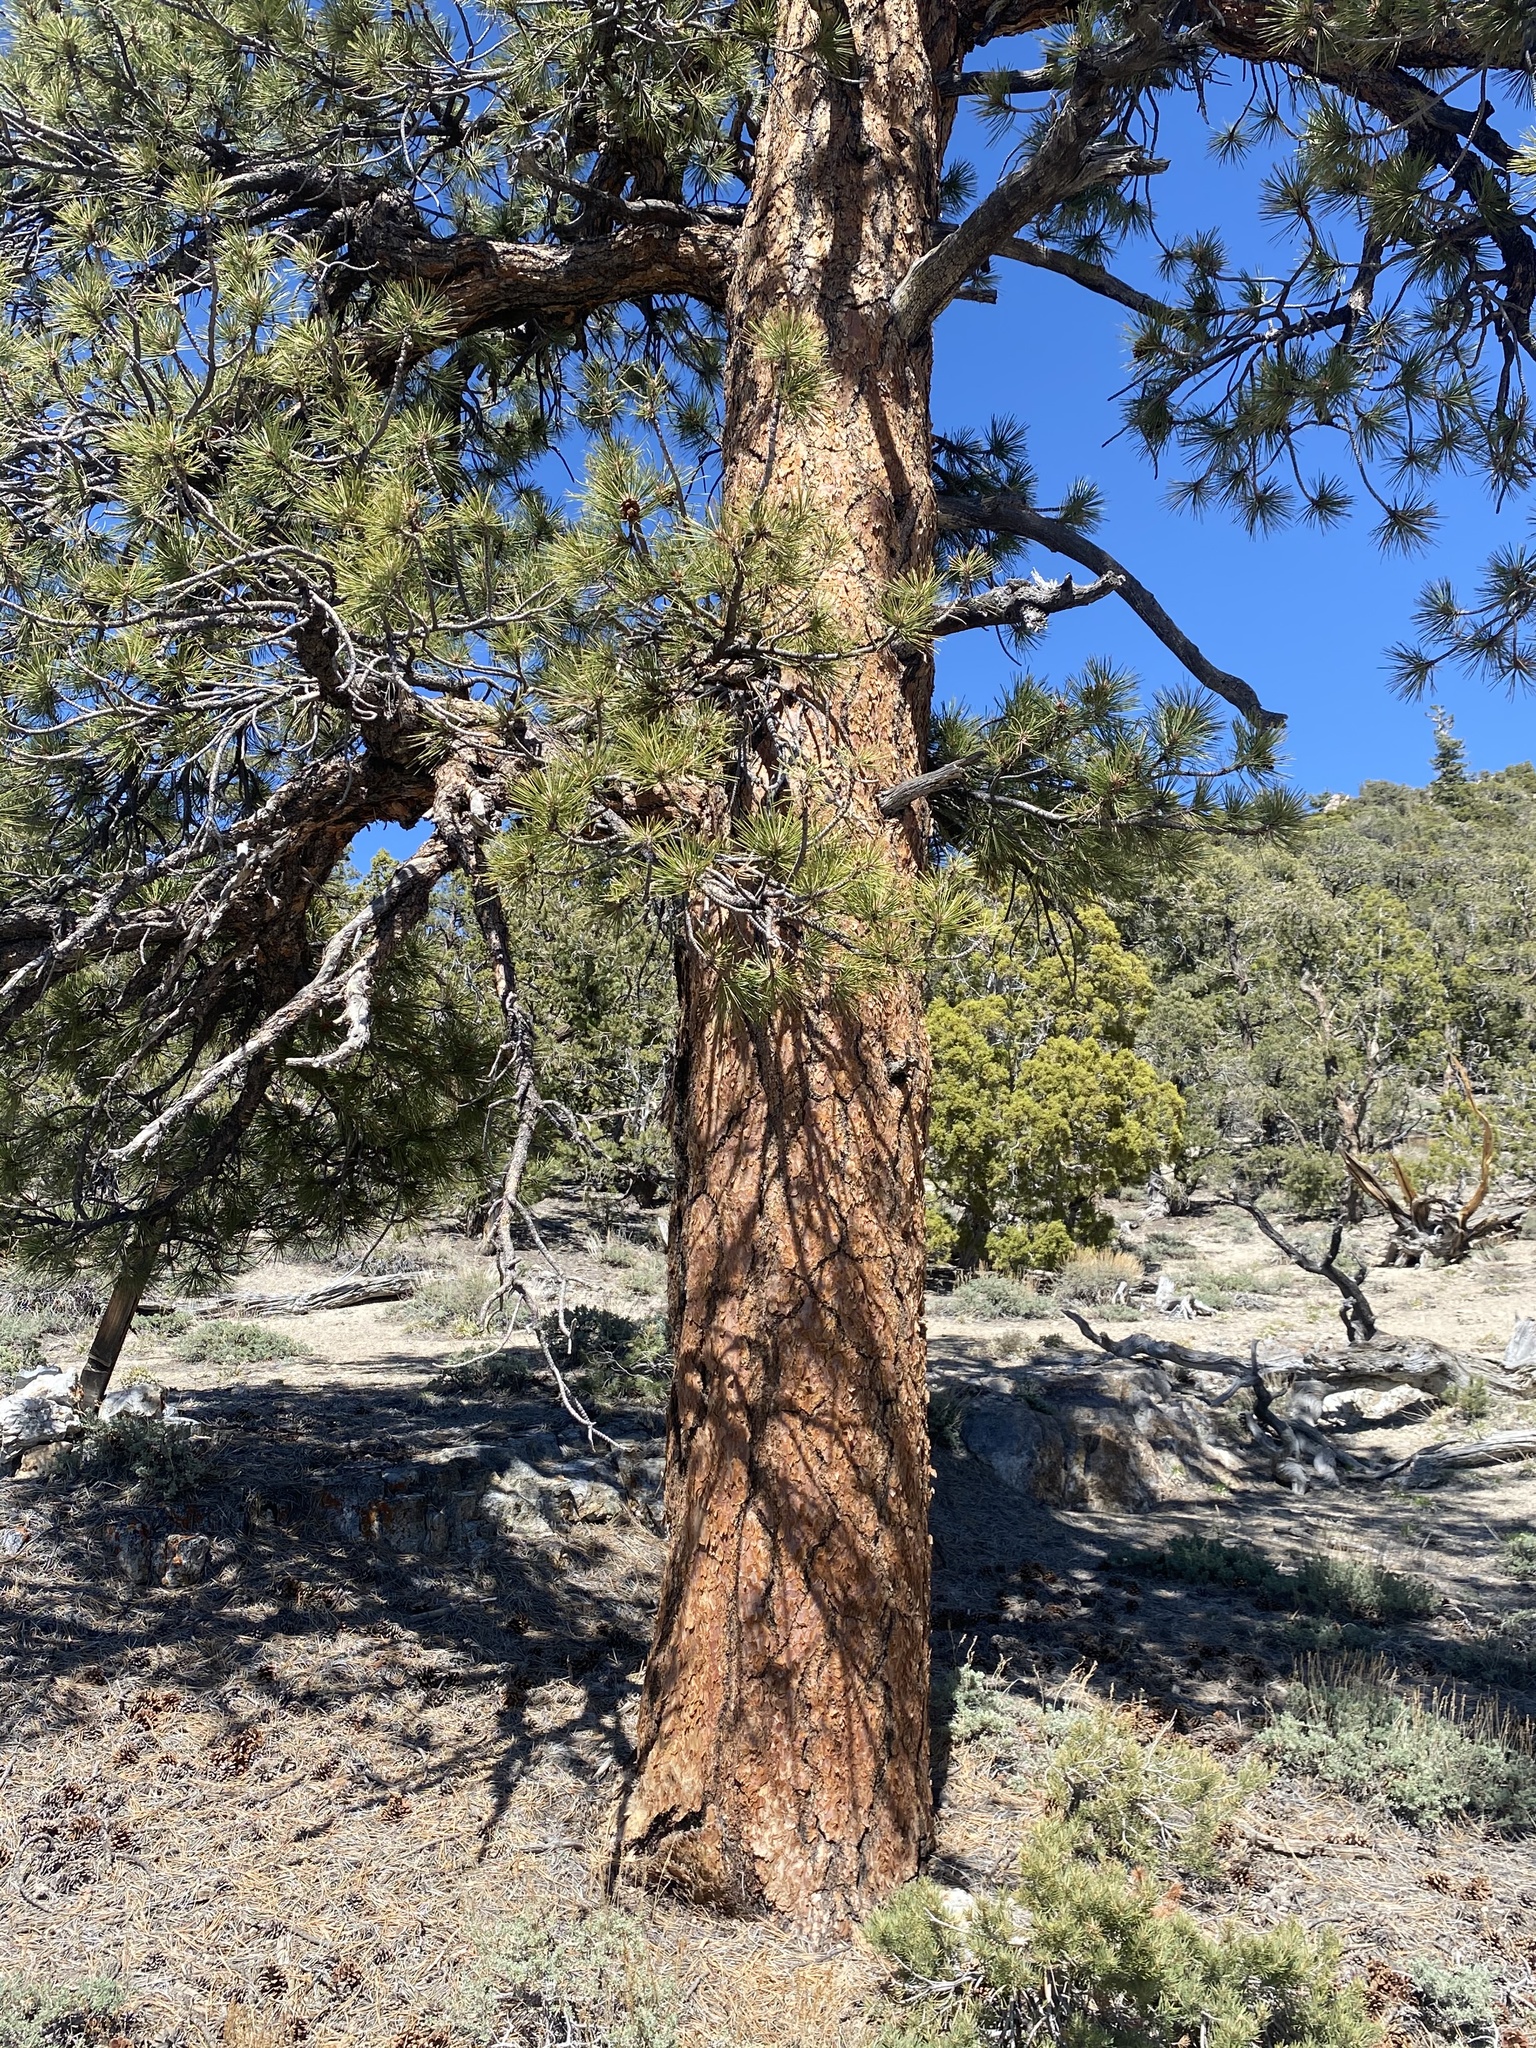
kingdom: Plantae
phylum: Tracheophyta
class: Pinopsida
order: Pinales
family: Pinaceae
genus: Pinus
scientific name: Pinus ponderosa
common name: Western yellow-pine
